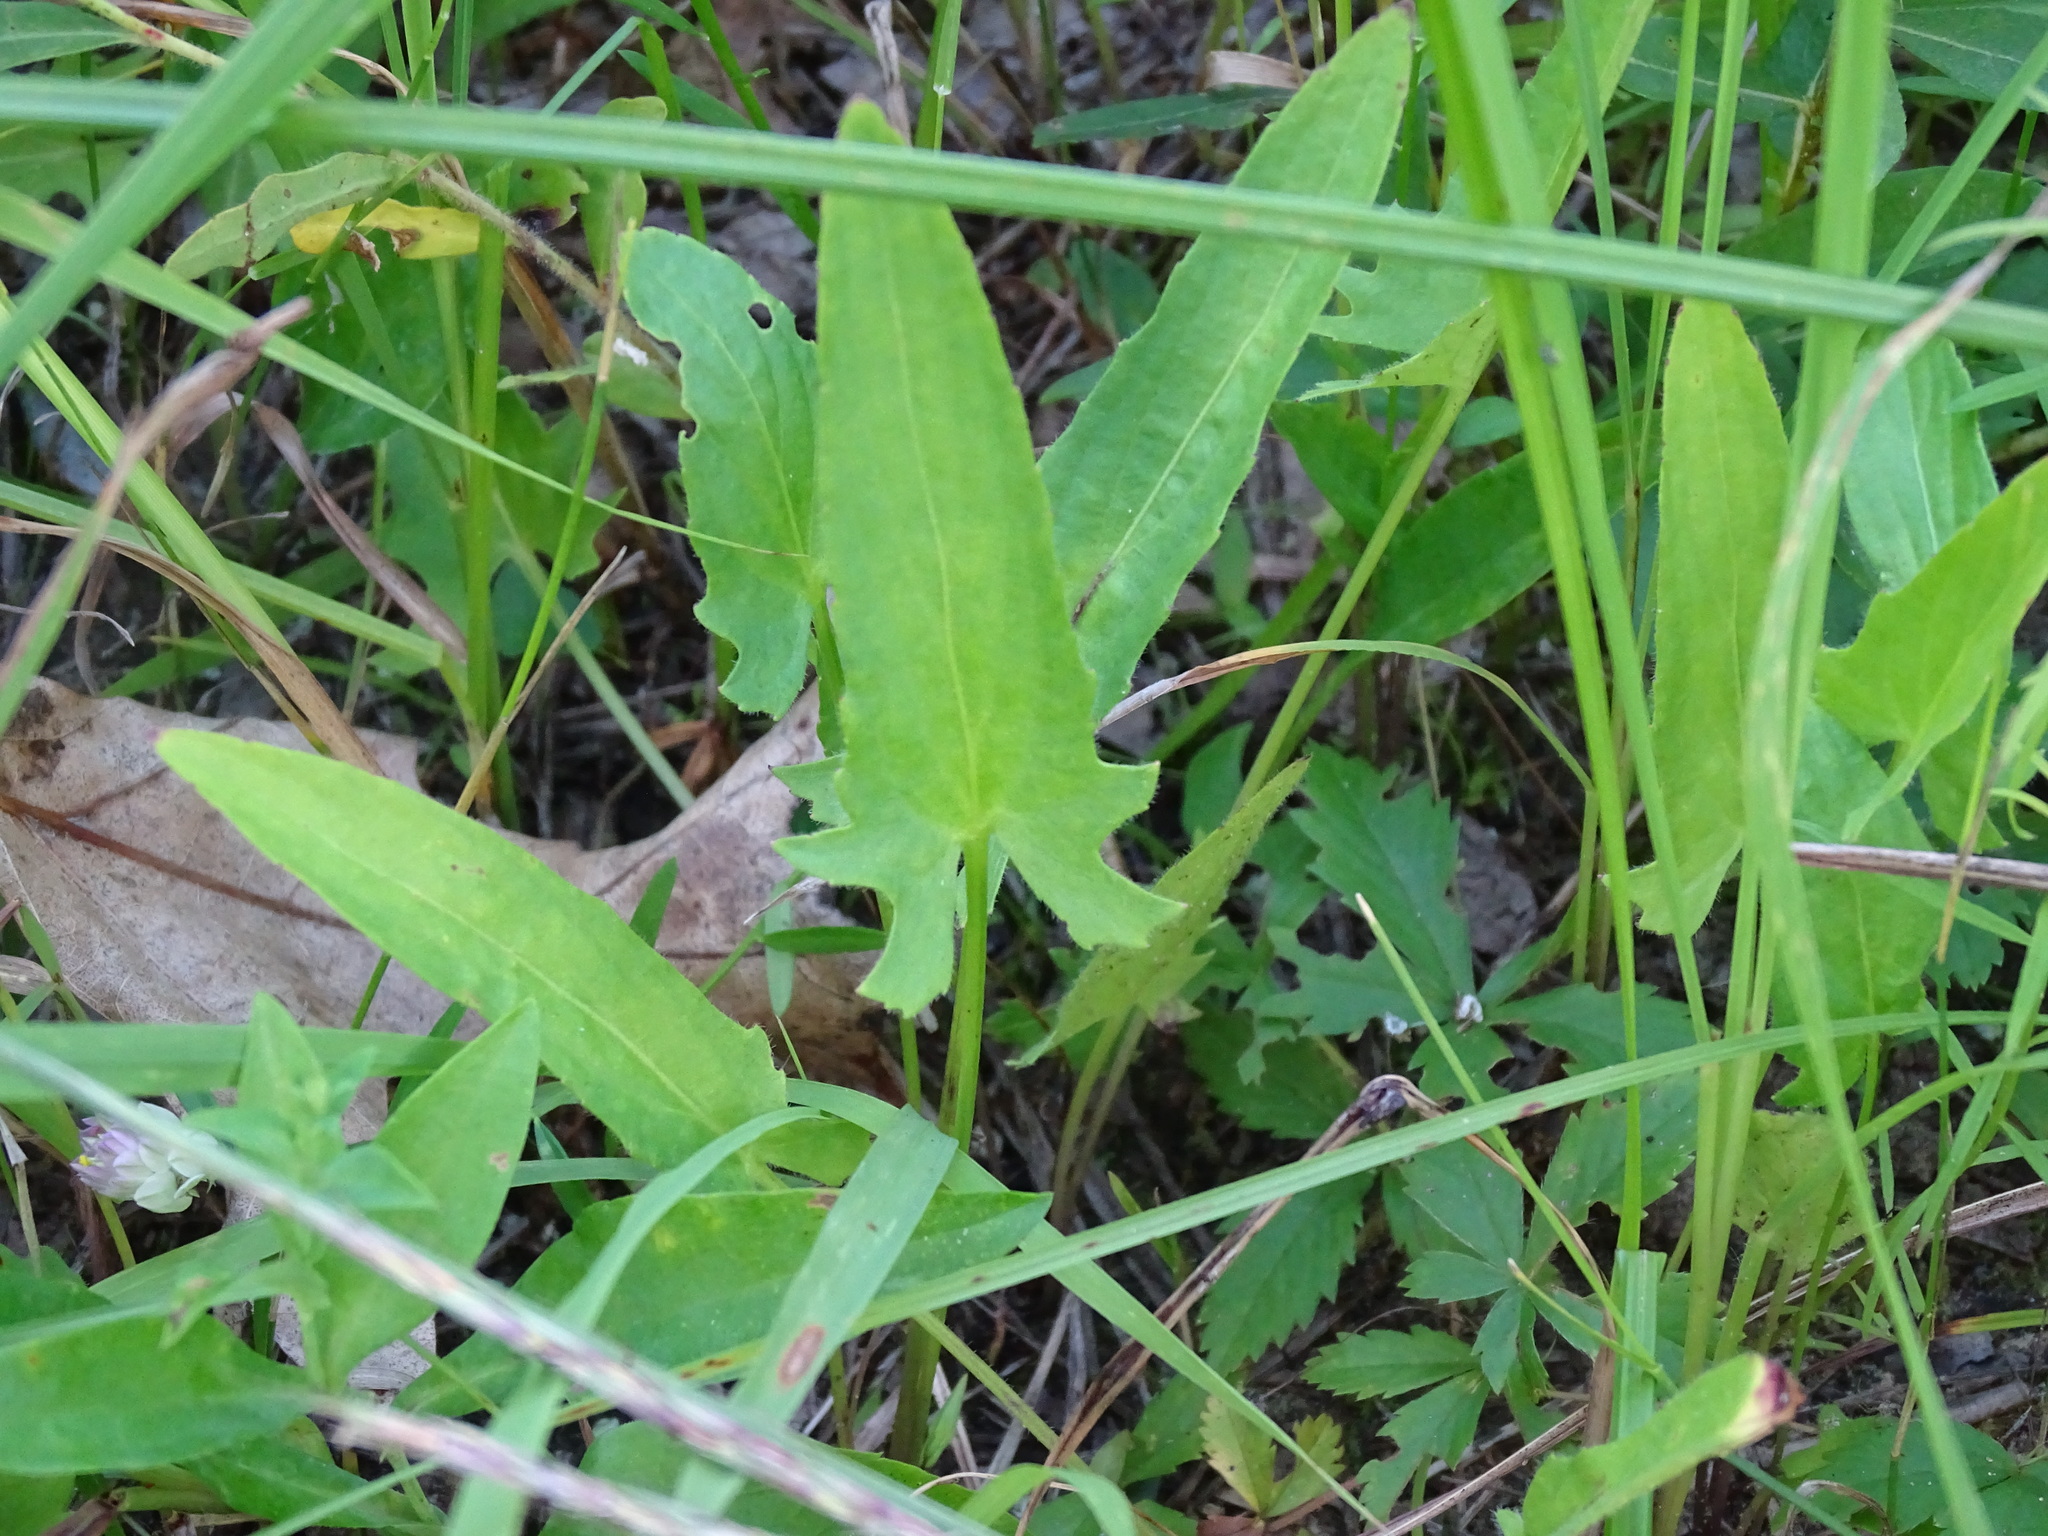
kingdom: Plantae
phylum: Tracheophyta
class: Magnoliopsida
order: Malpighiales
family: Violaceae
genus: Viola
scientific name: Viola sagittata
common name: Arrowhead violet
